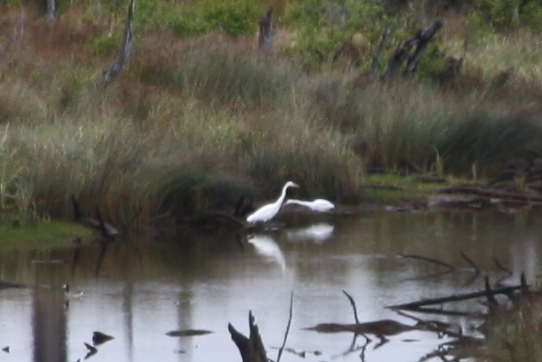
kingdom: Animalia
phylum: Chordata
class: Aves
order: Pelecaniformes
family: Ardeidae
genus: Ardea
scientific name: Ardea alba
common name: Great egret
